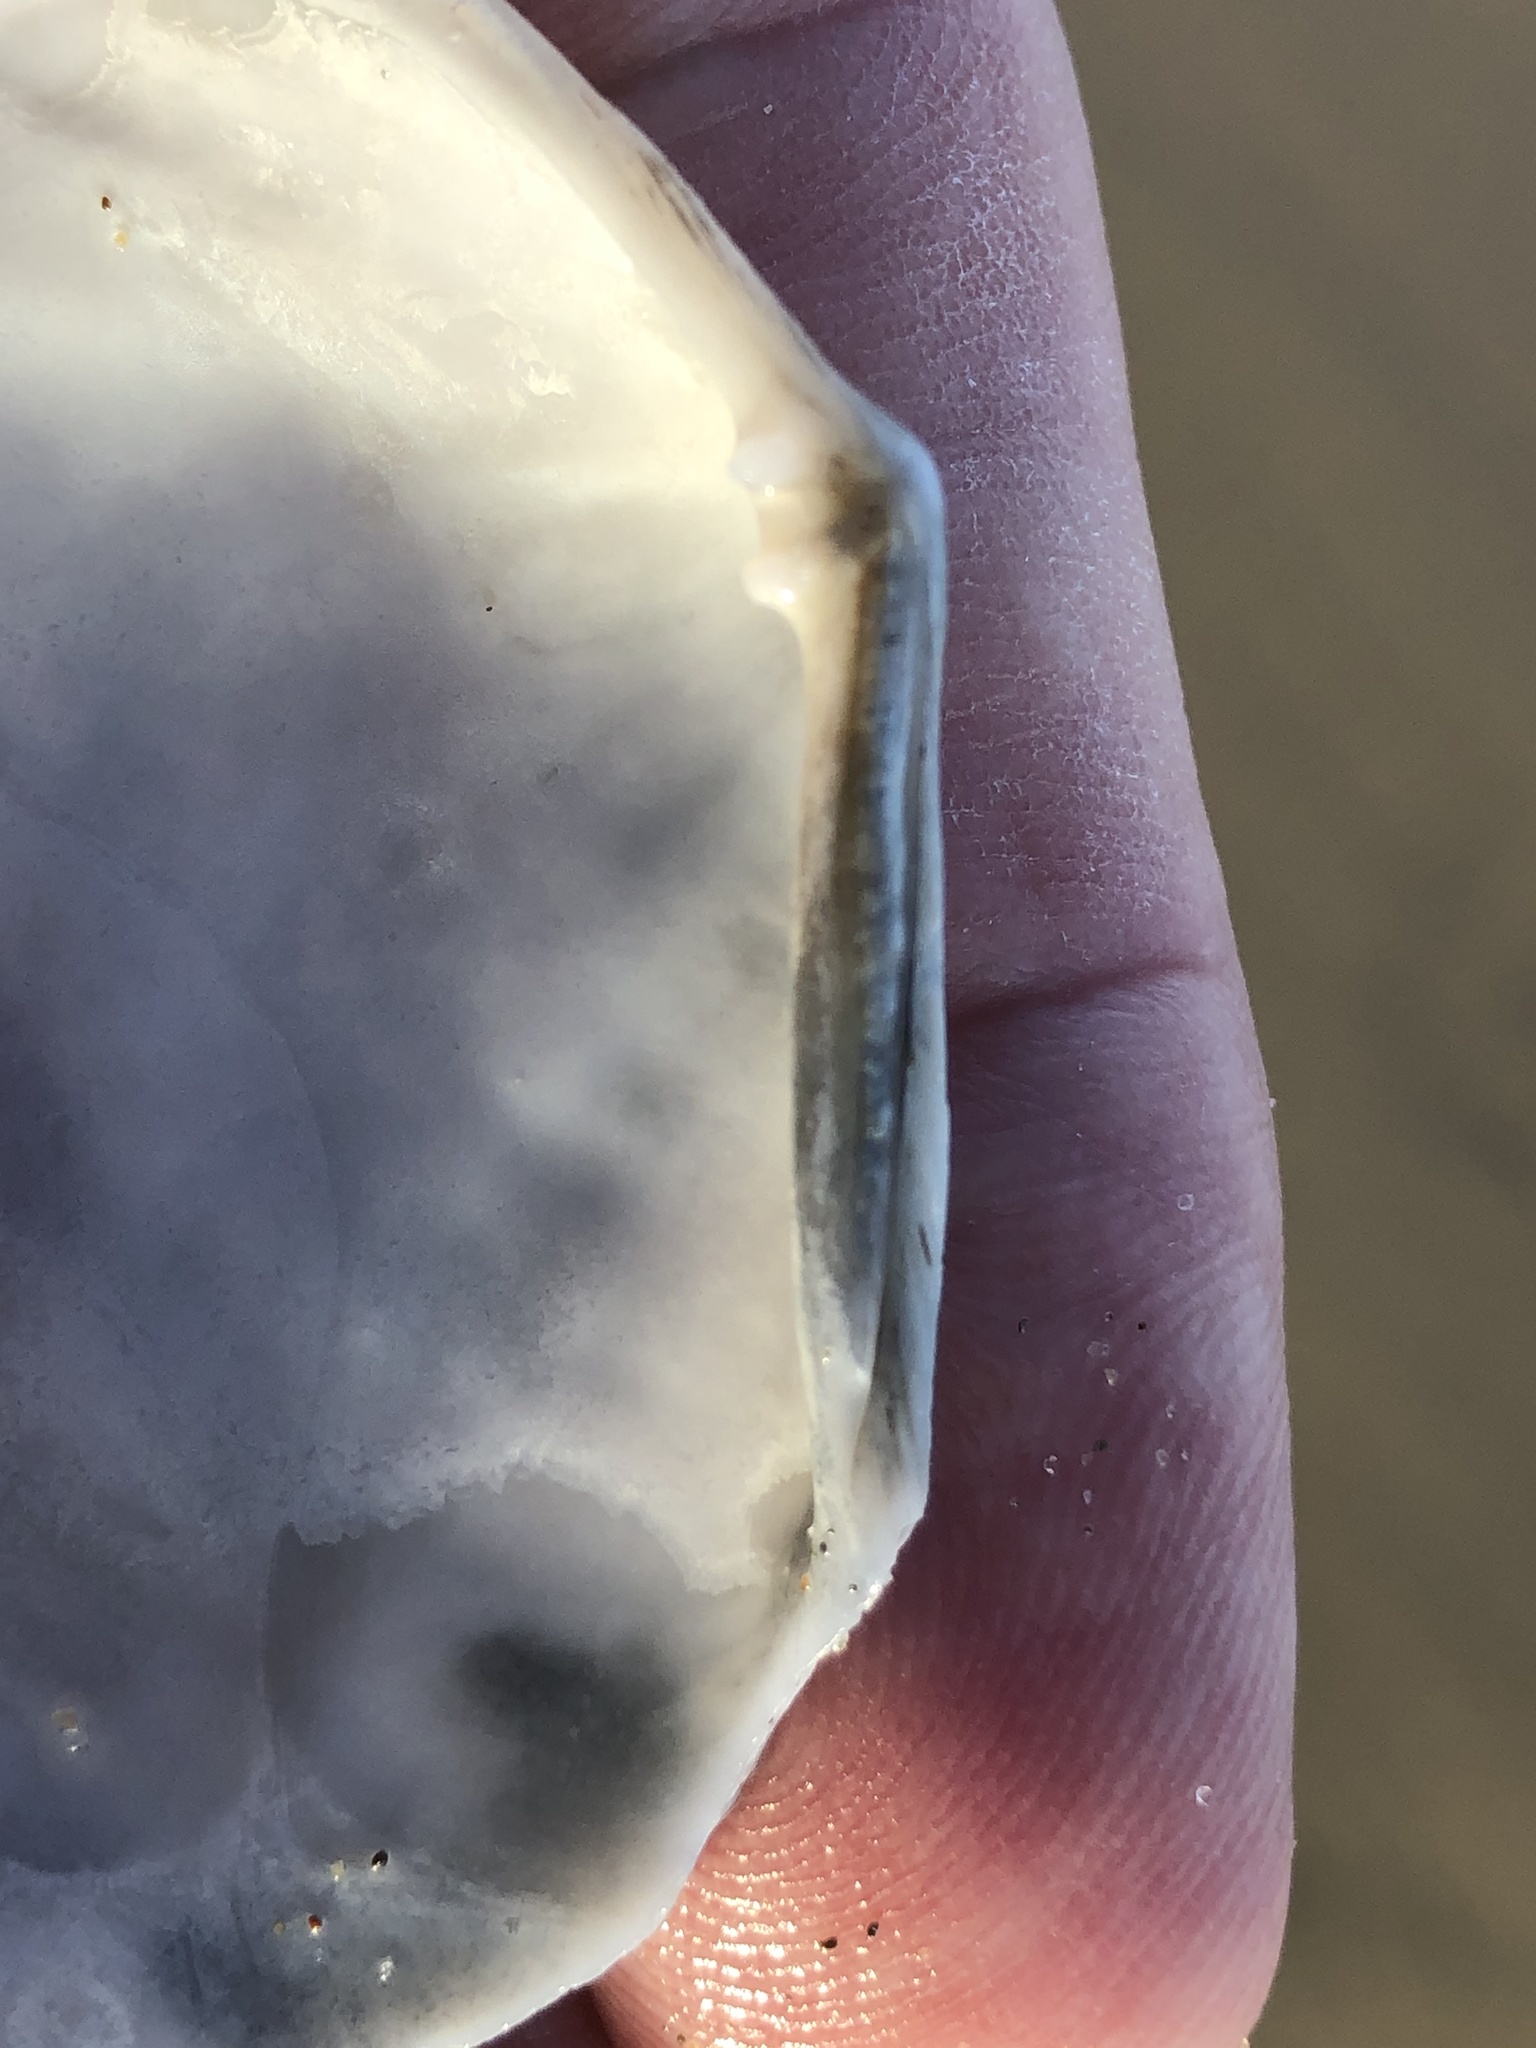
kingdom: Animalia
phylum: Mollusca
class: Bivalvia
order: Cardiida
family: Tellinidae
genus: Macoma
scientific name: Macoma nasuta
